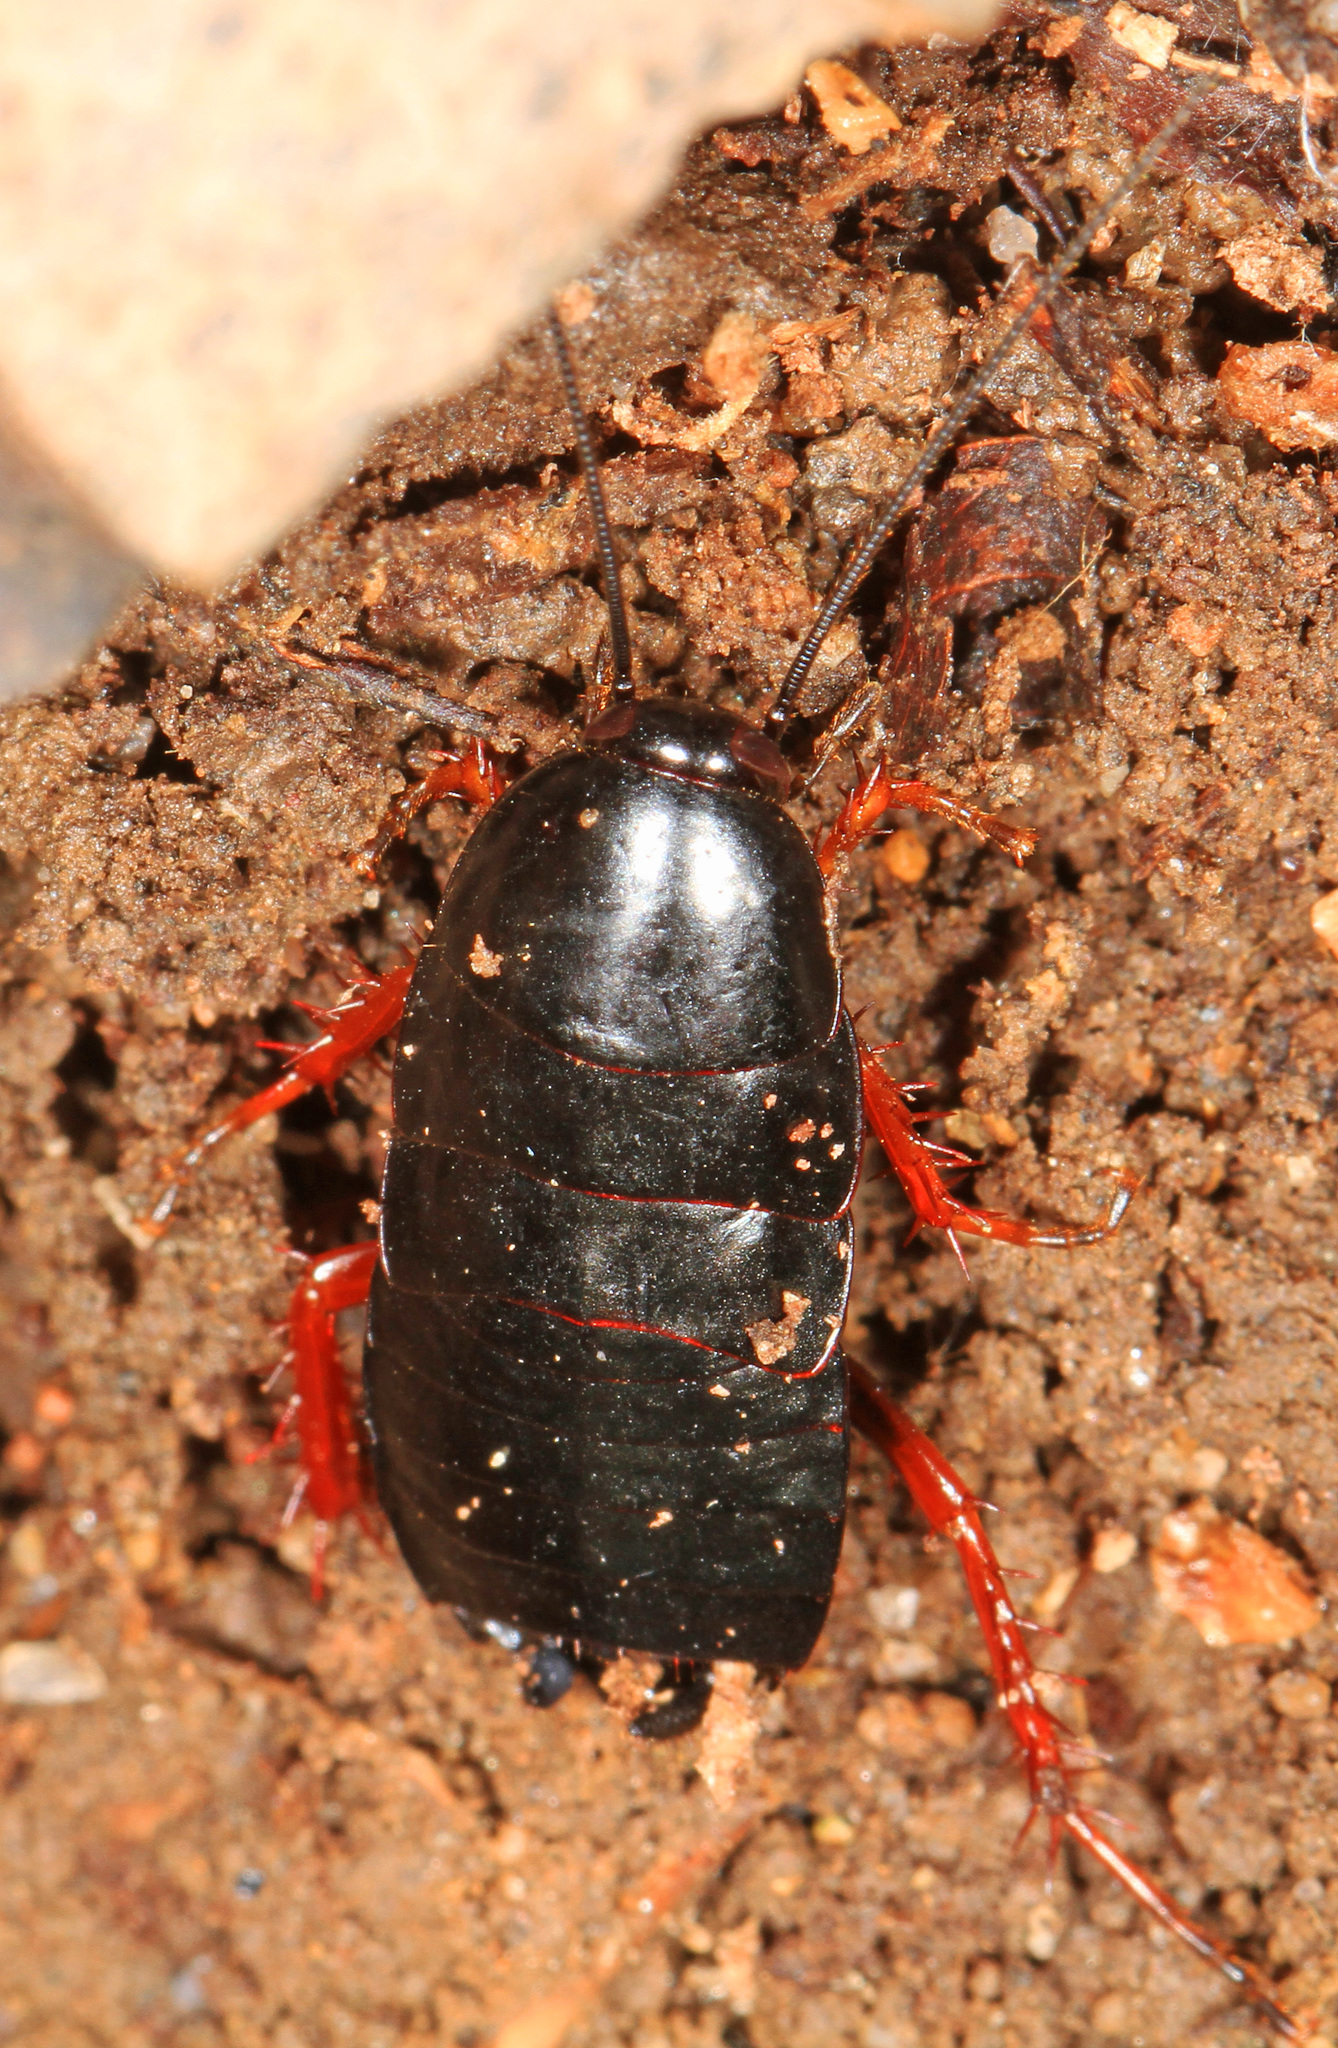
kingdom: Animalia
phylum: Arthropoda
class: Insecta
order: Blattodea
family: Ectobiidae
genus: Ischnoptera
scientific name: Ischnoptera deropeltiformis
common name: Dark wood cockroach
